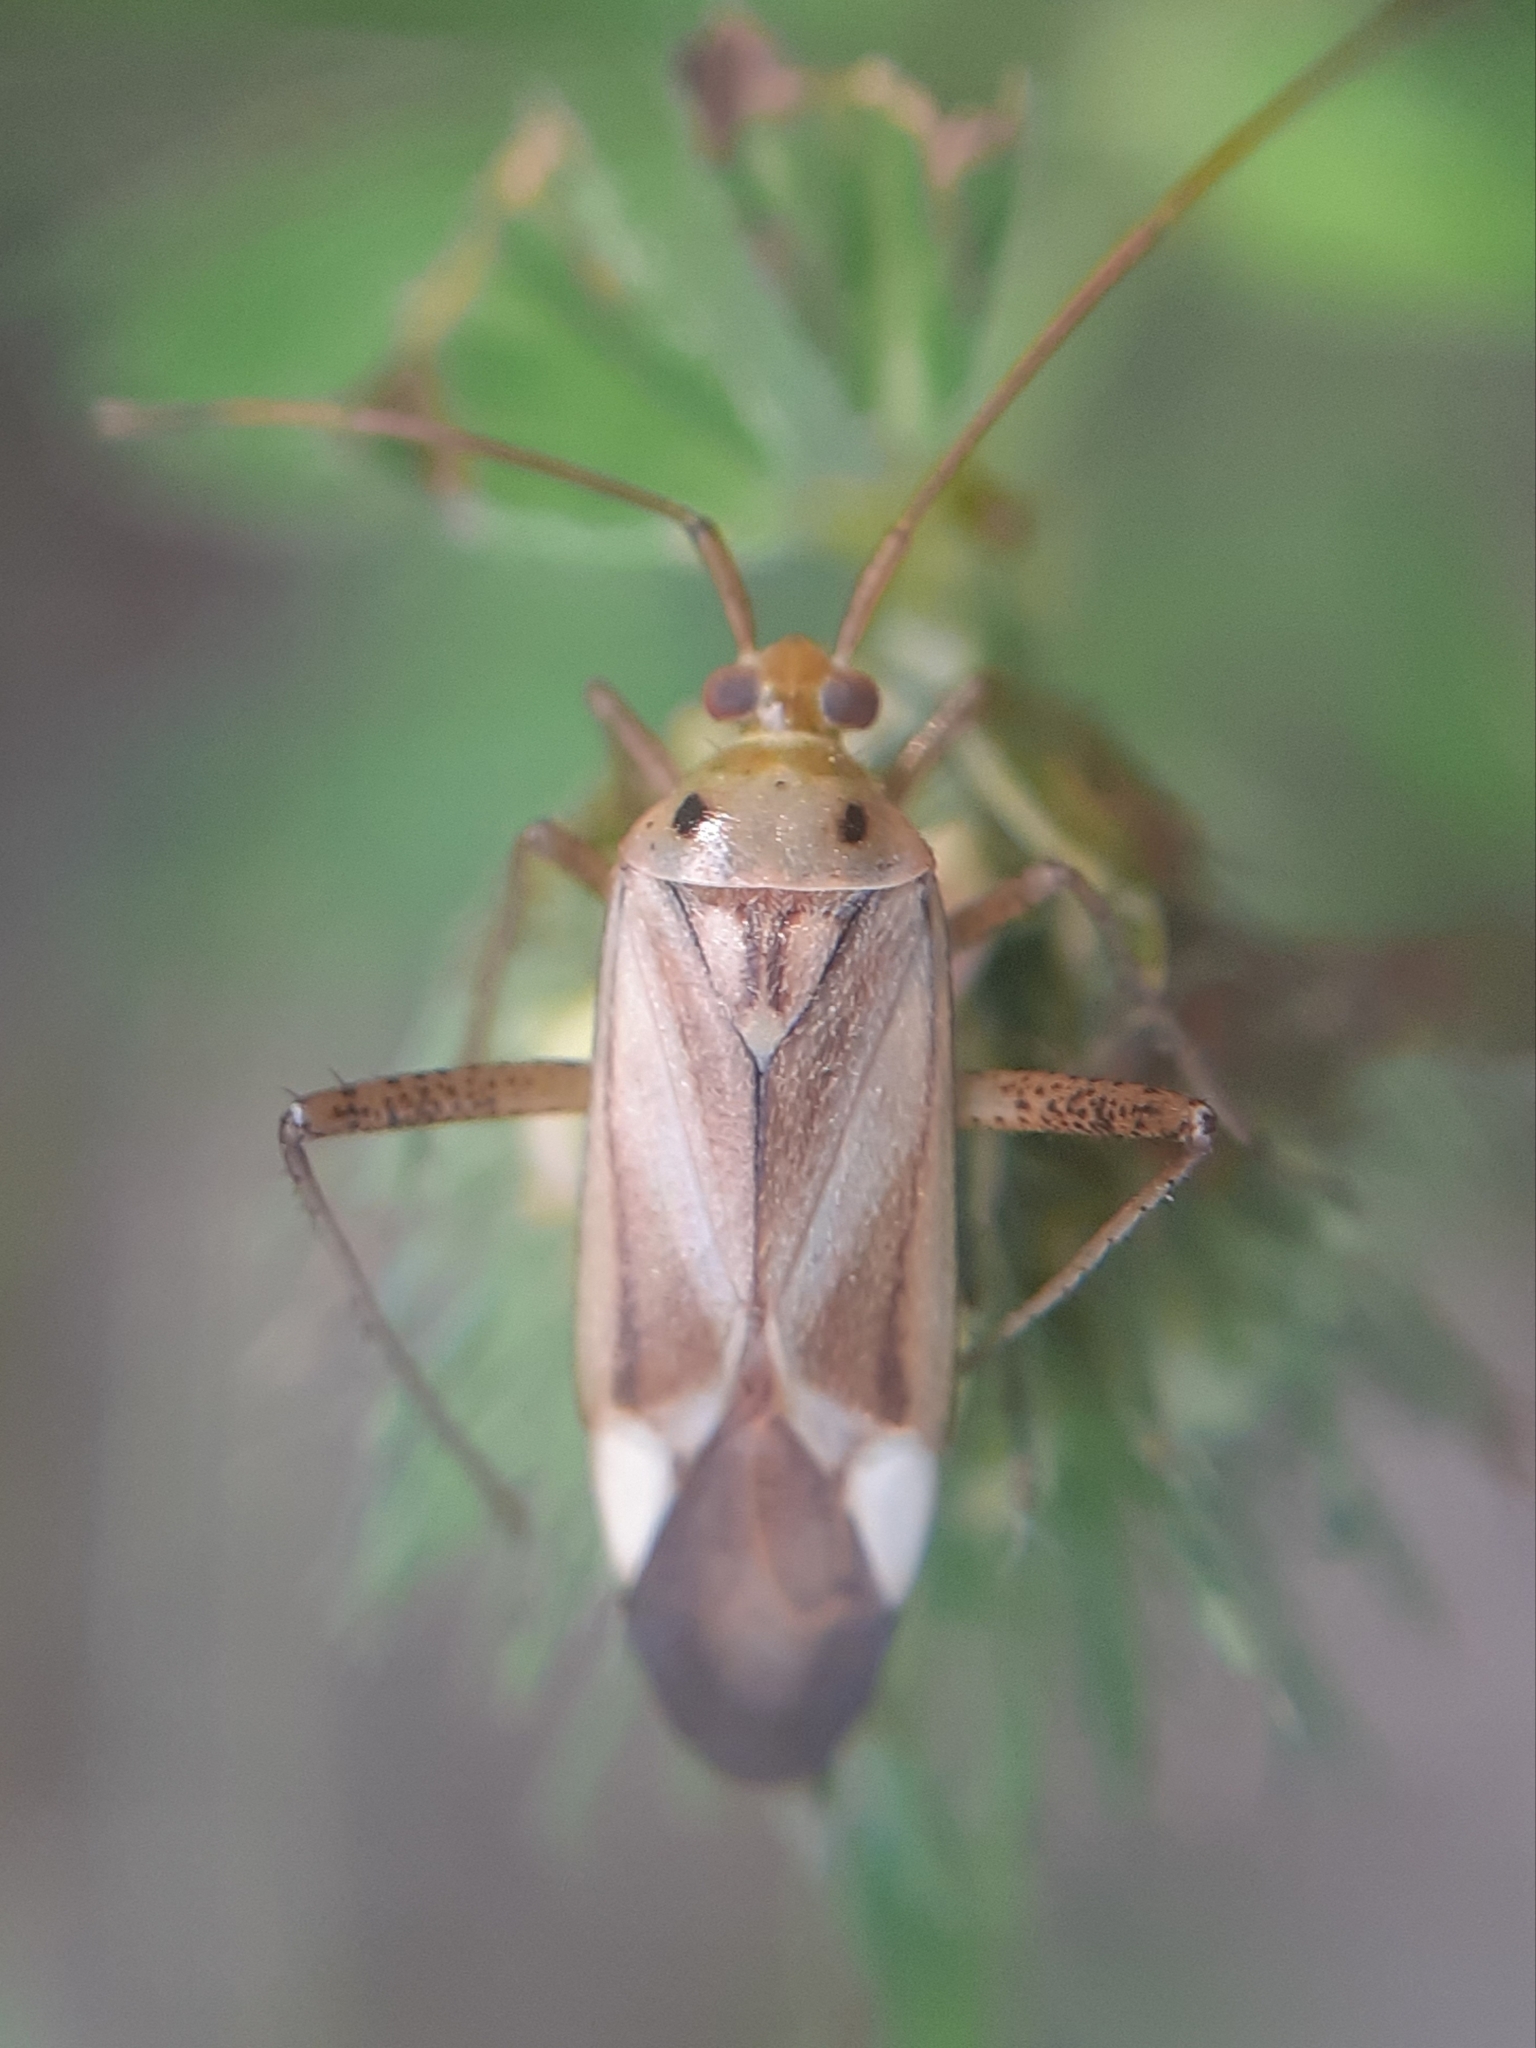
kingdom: Animalia
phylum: Arthropoda
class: Insecta
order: Hemiptera
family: Miridae
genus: Adelphocoris
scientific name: Adelphocoris lineolatus
